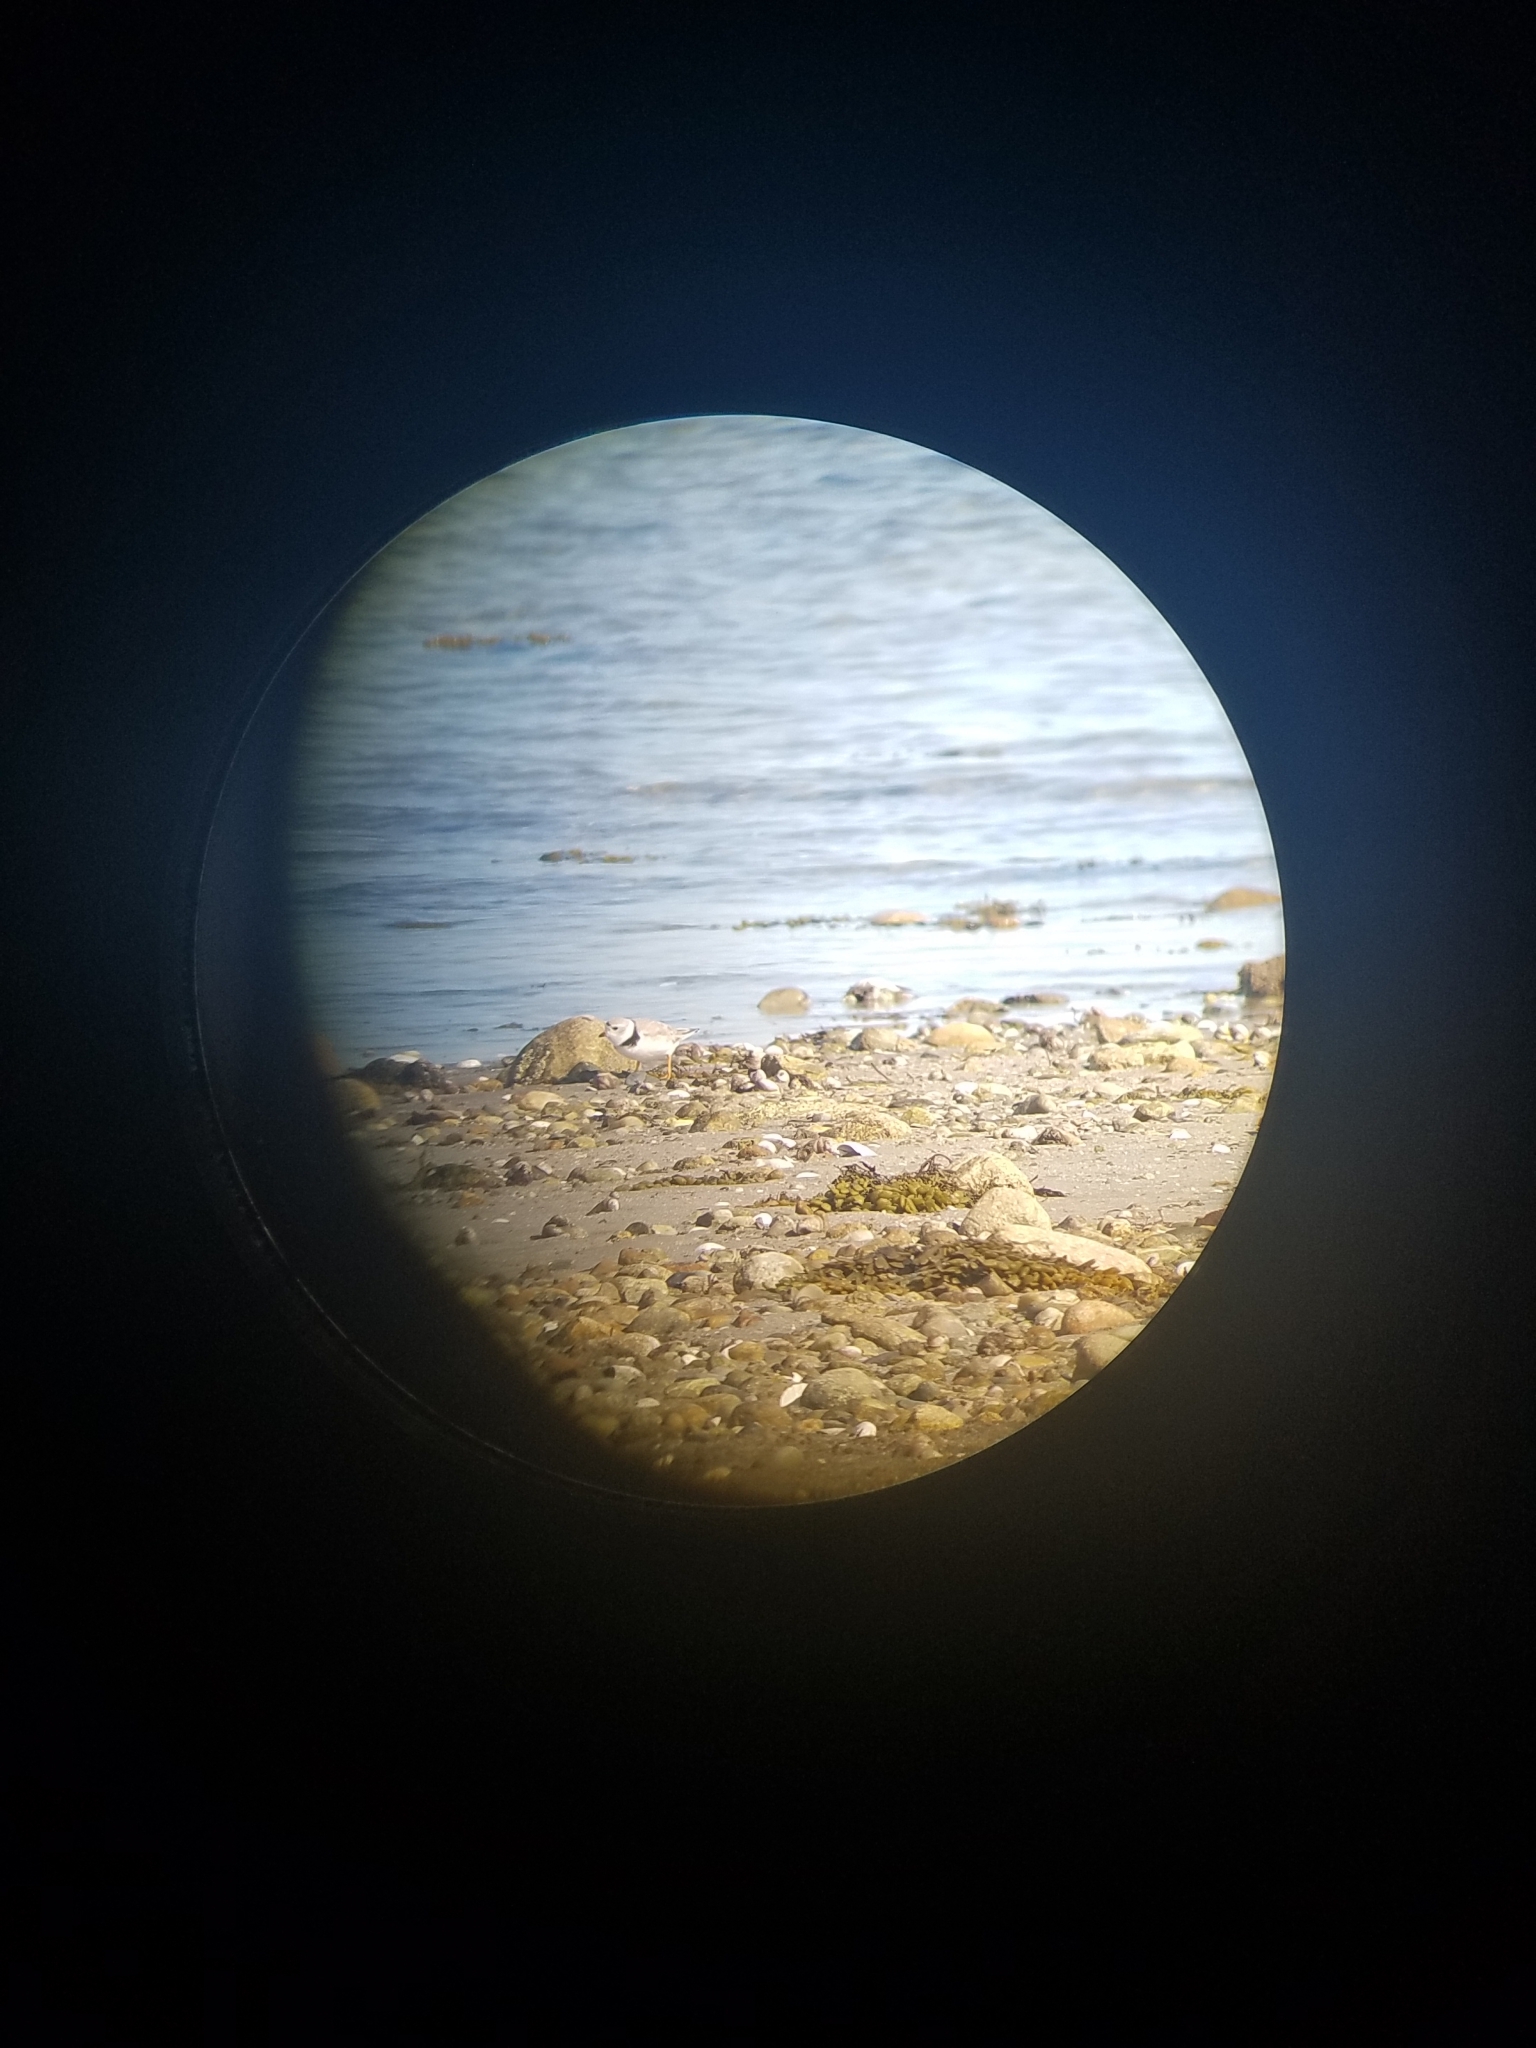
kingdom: Animalia
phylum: Chordata
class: Aves
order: Charadriiformes
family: Charadriidae
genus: Charadrius
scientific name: Charadrius melodus
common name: Piping plover
